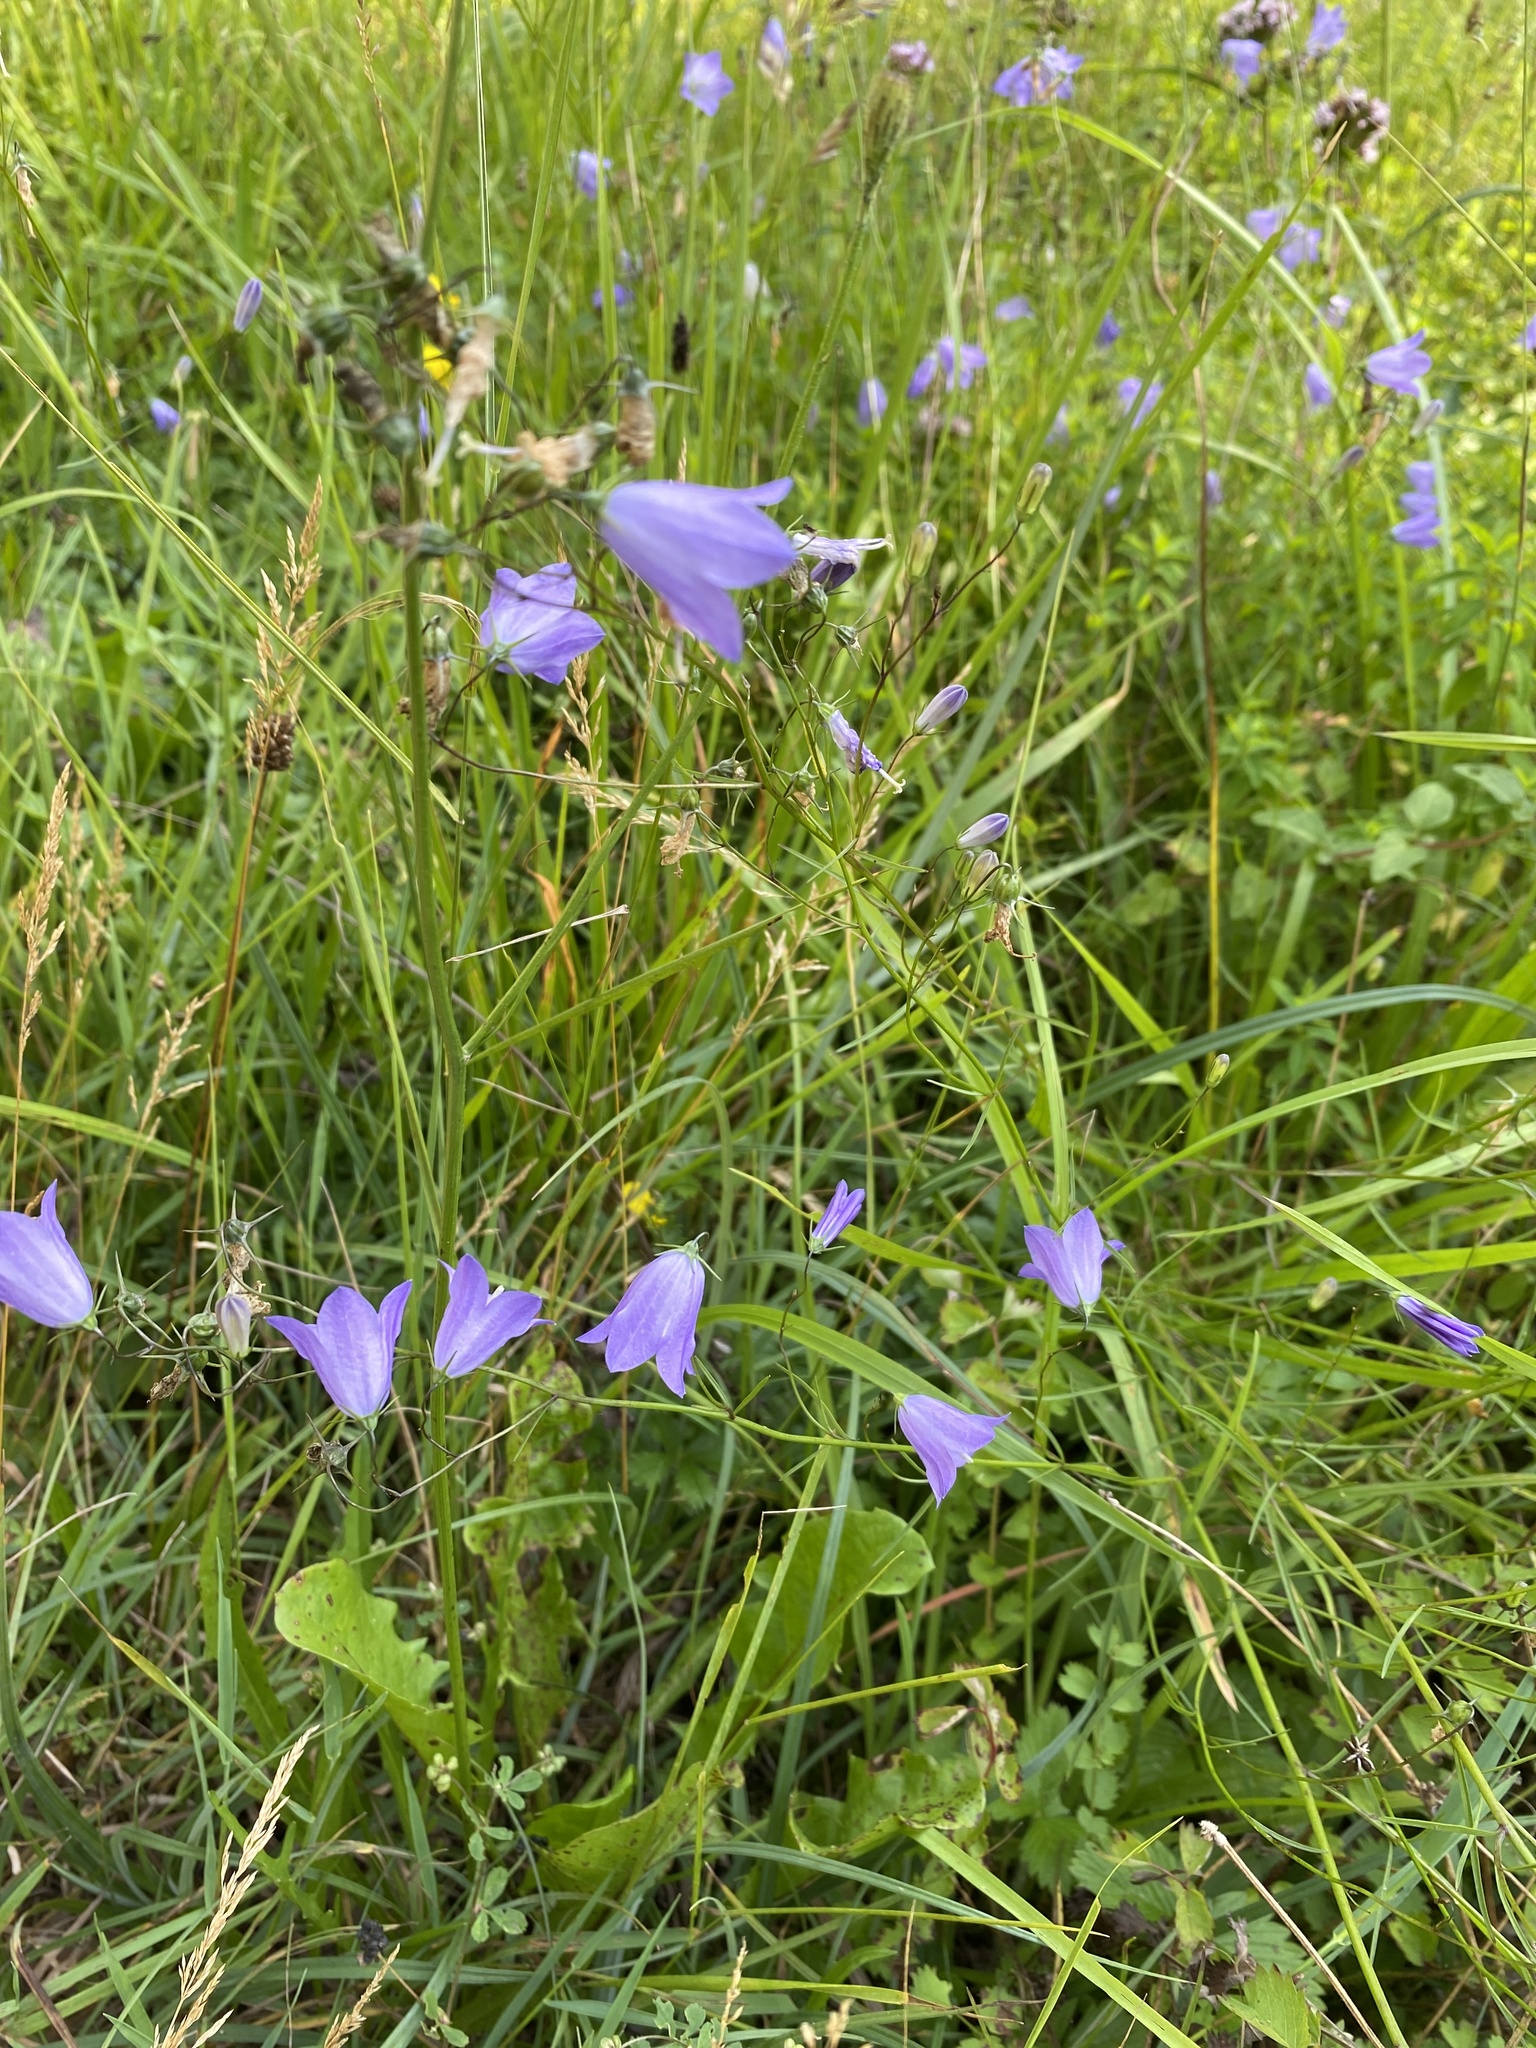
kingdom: Plantae
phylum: Tracheophyta
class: Magnoliopsida
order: Asterales
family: Campanulaceae
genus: Campanula
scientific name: Campanula rotundifolia
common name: Harebell
